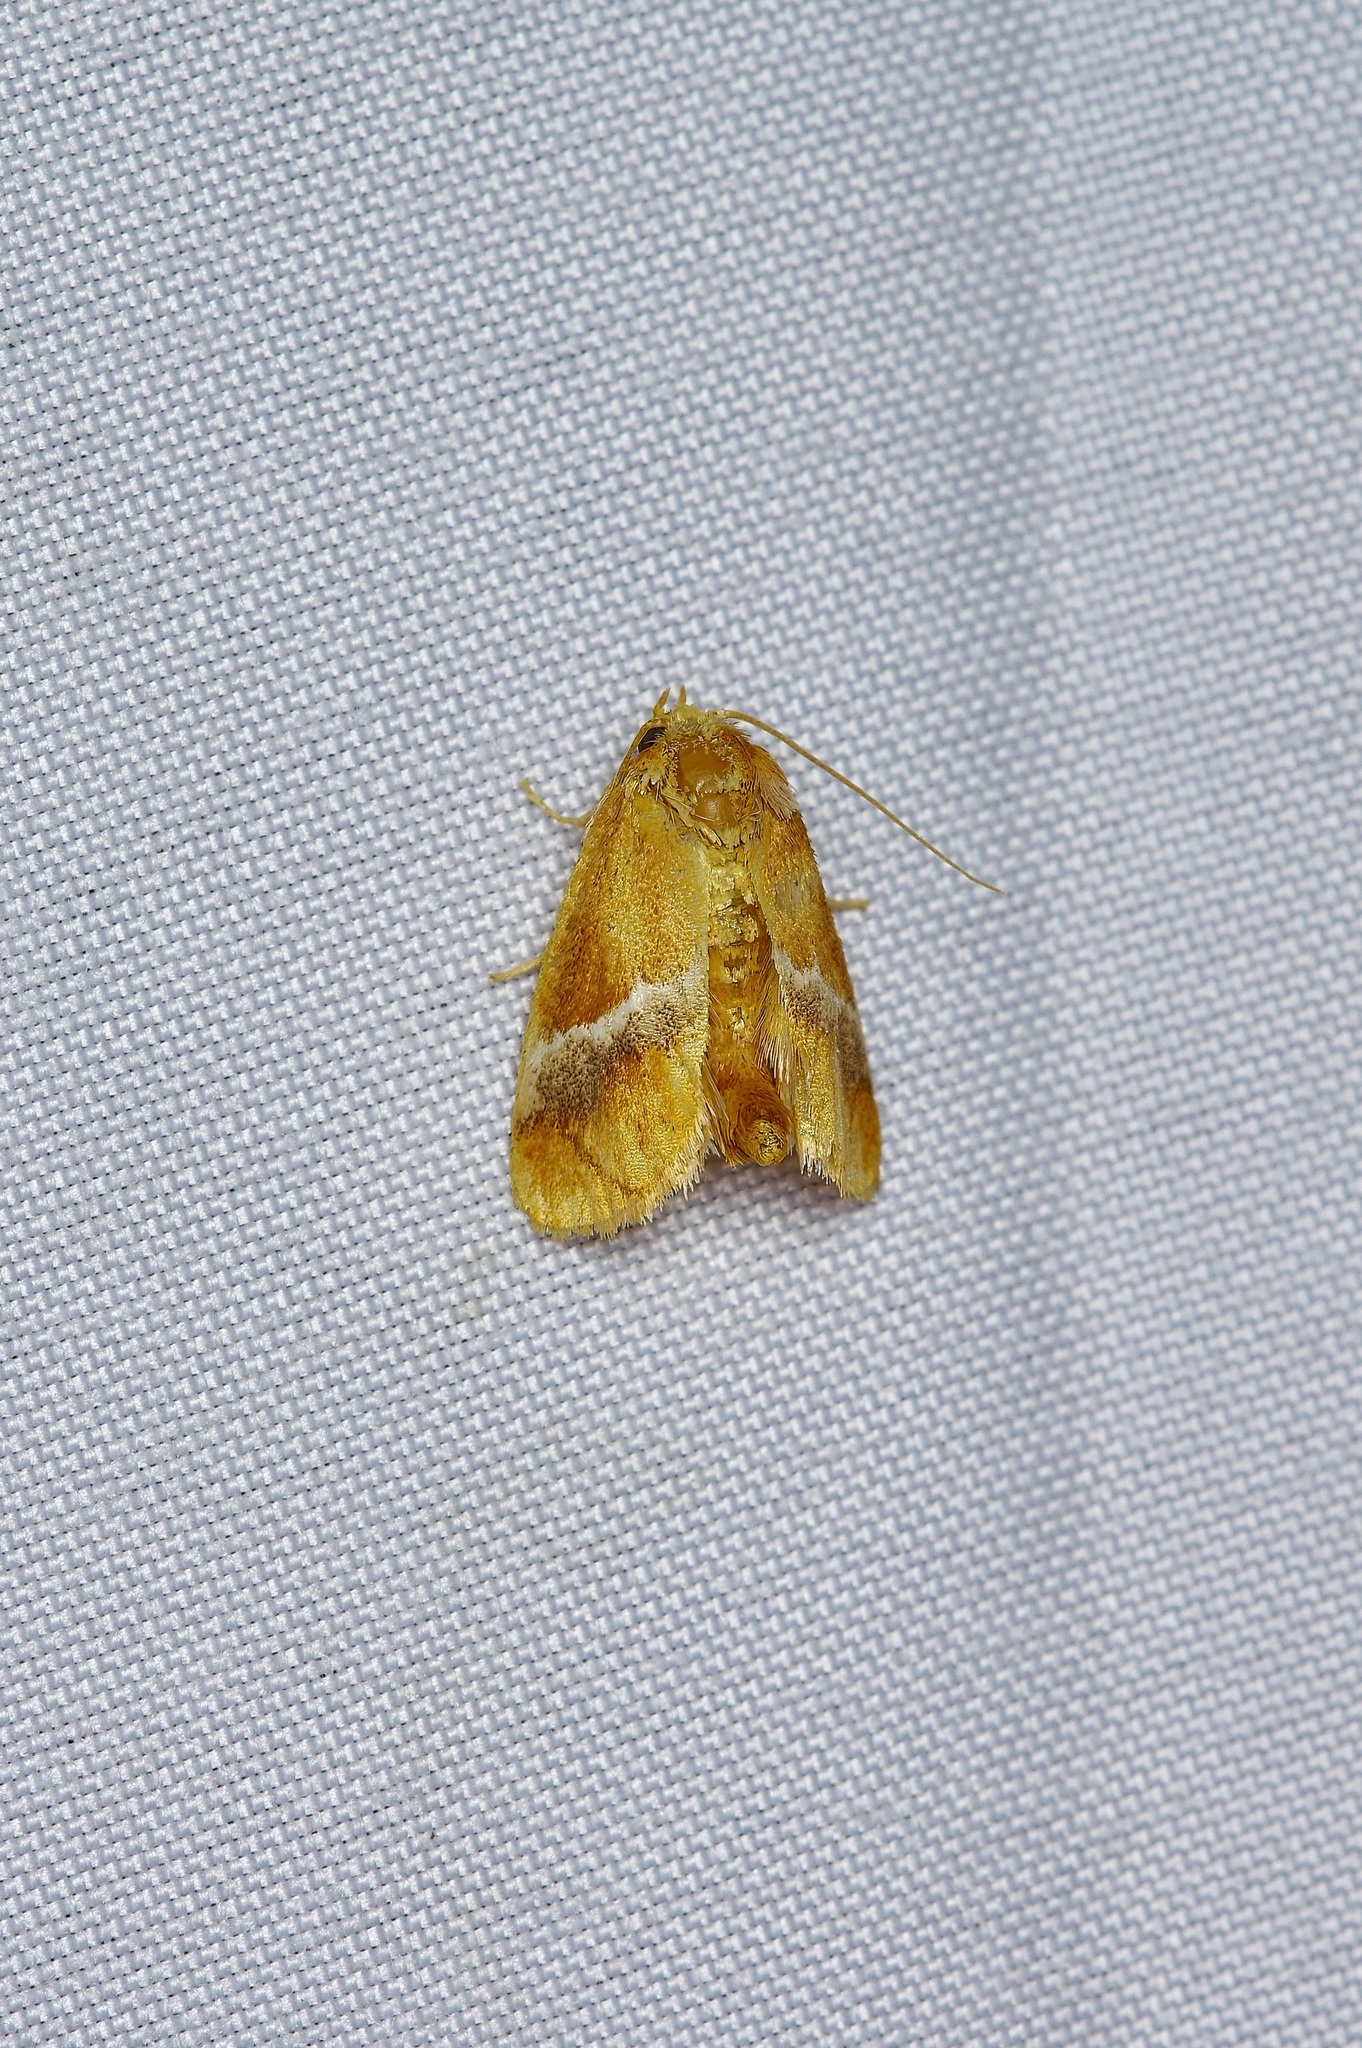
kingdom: Animalia
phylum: Arthropoda
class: Insecta
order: Lepidoptera
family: Limacodidae
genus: Lithacodes
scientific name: Lithacodes fasciola
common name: Yellow-shouldered slug moth
